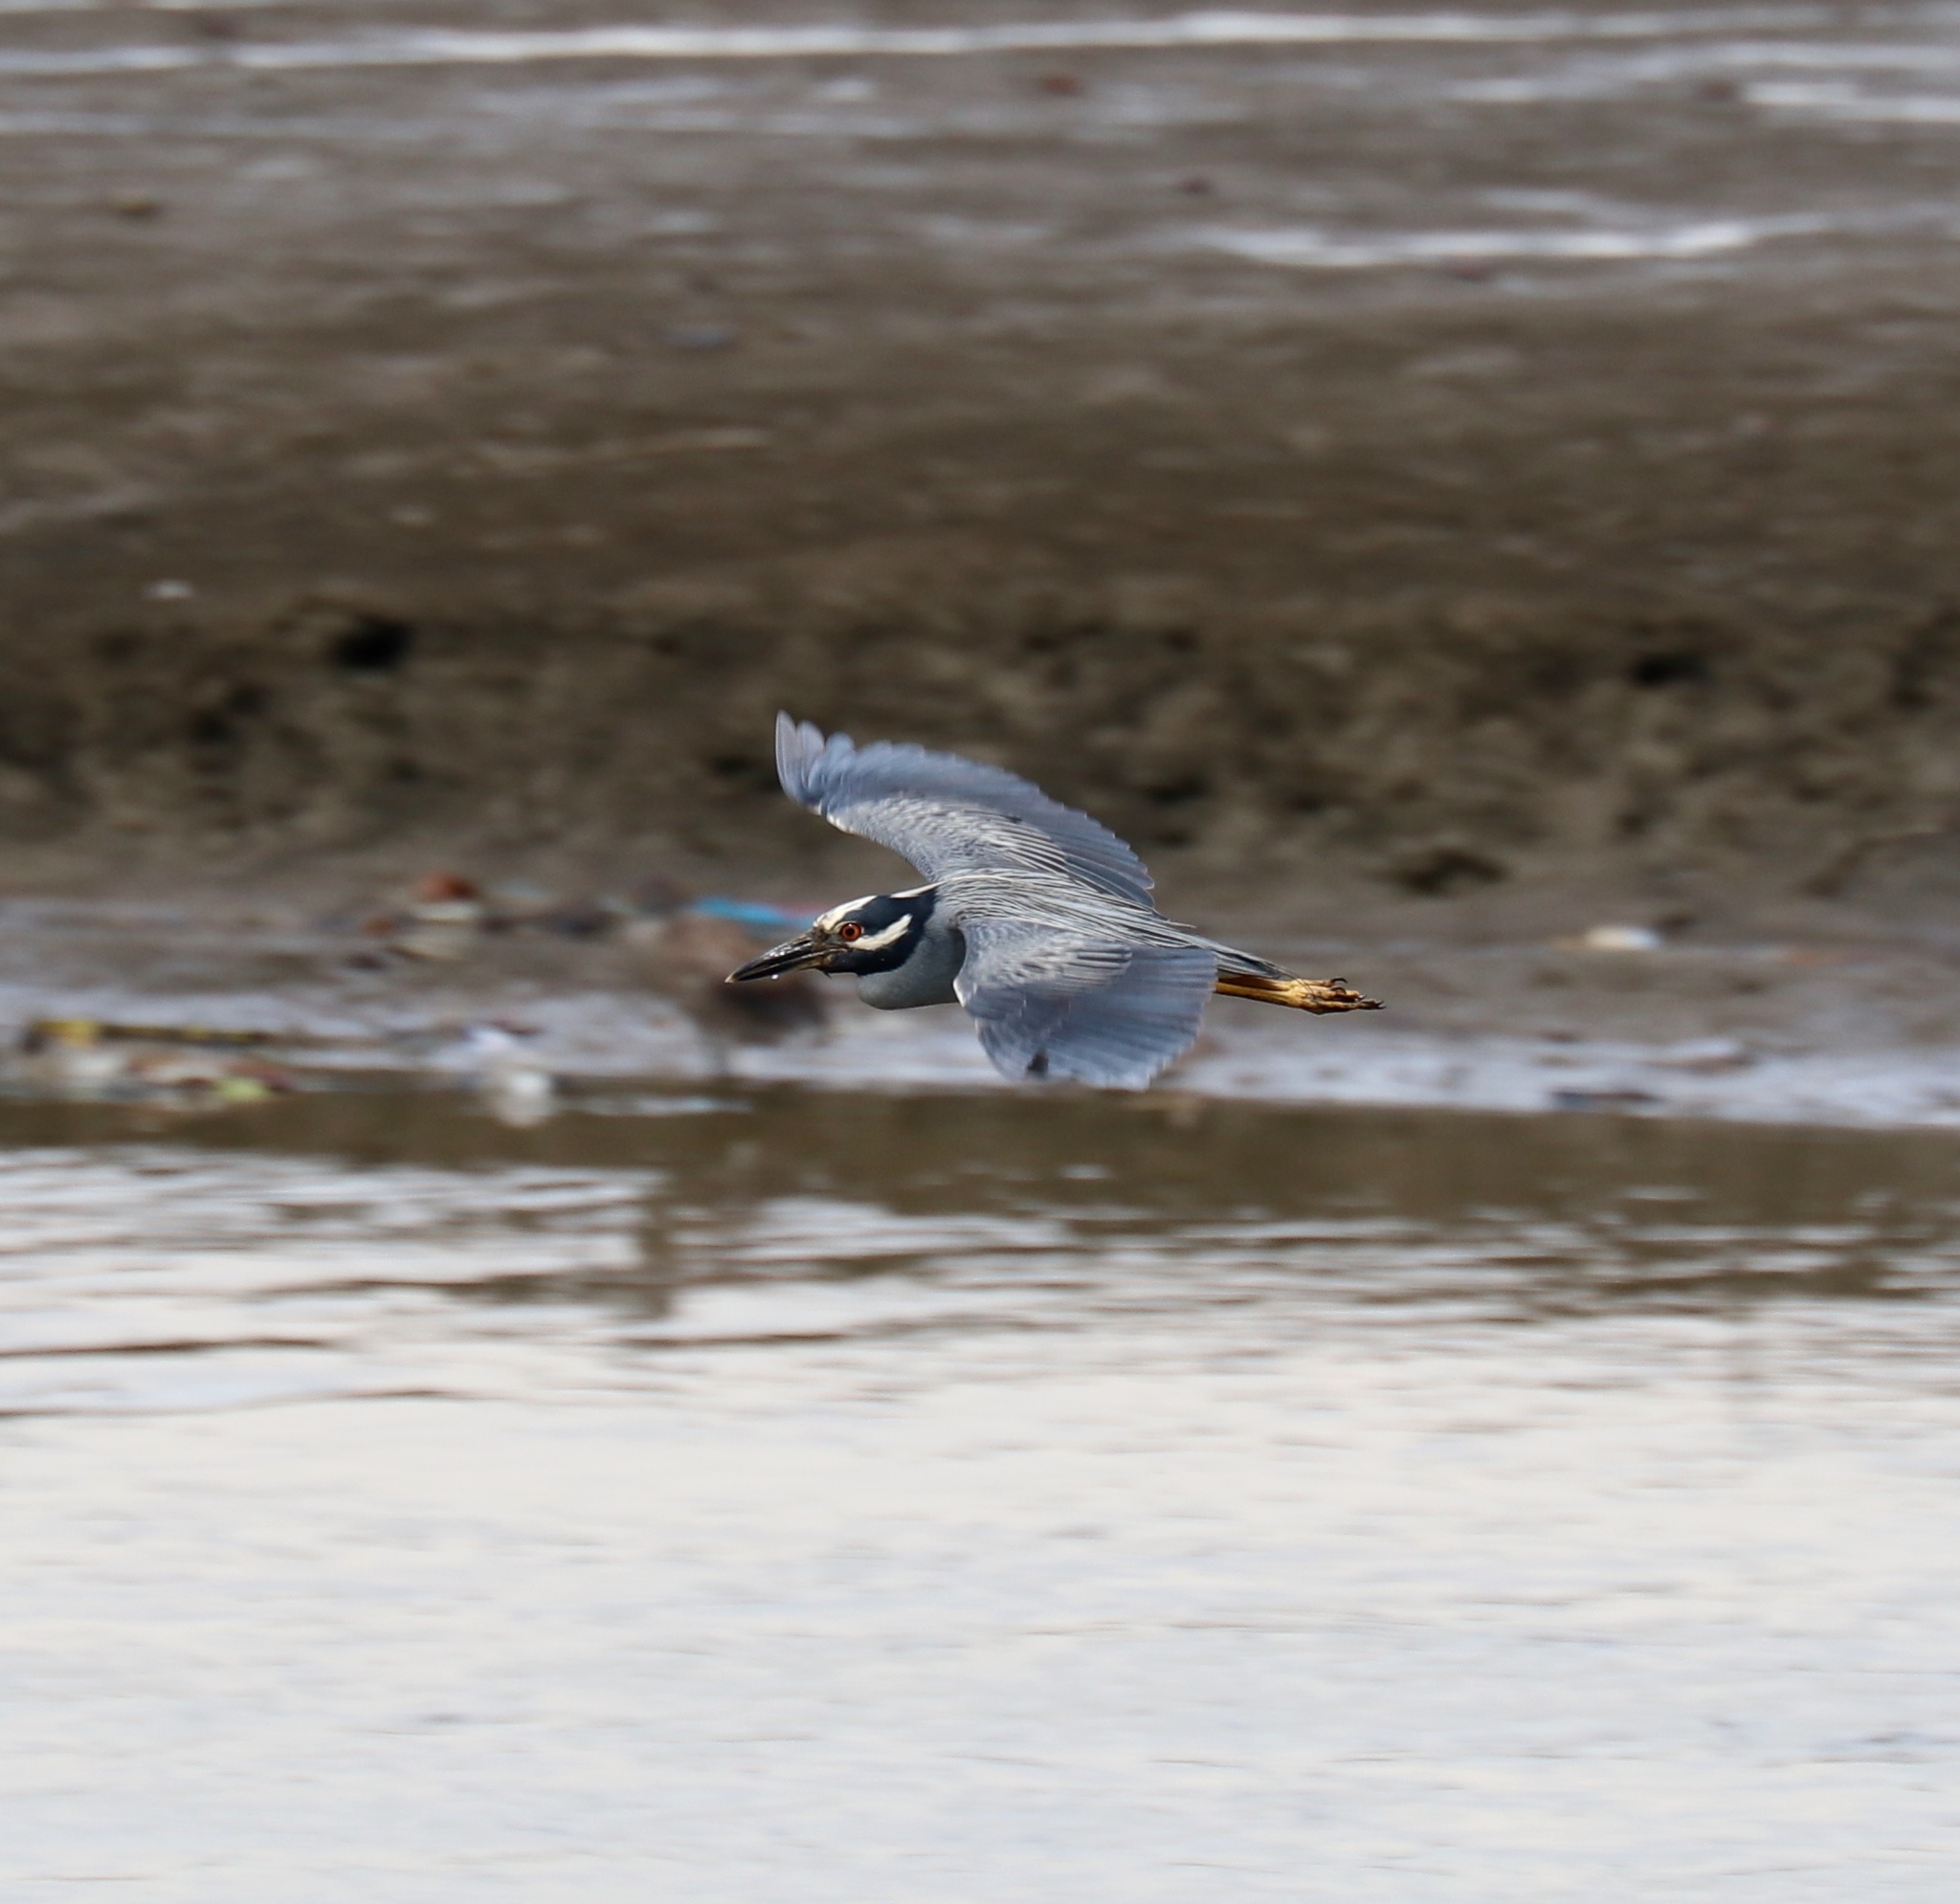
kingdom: Animalia
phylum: Chordata
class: Aves
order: Pelecaniformes
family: Ardeidae
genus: Nyctanassa
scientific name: Nyctanassa violacea
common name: Yellow-crowned night heron
